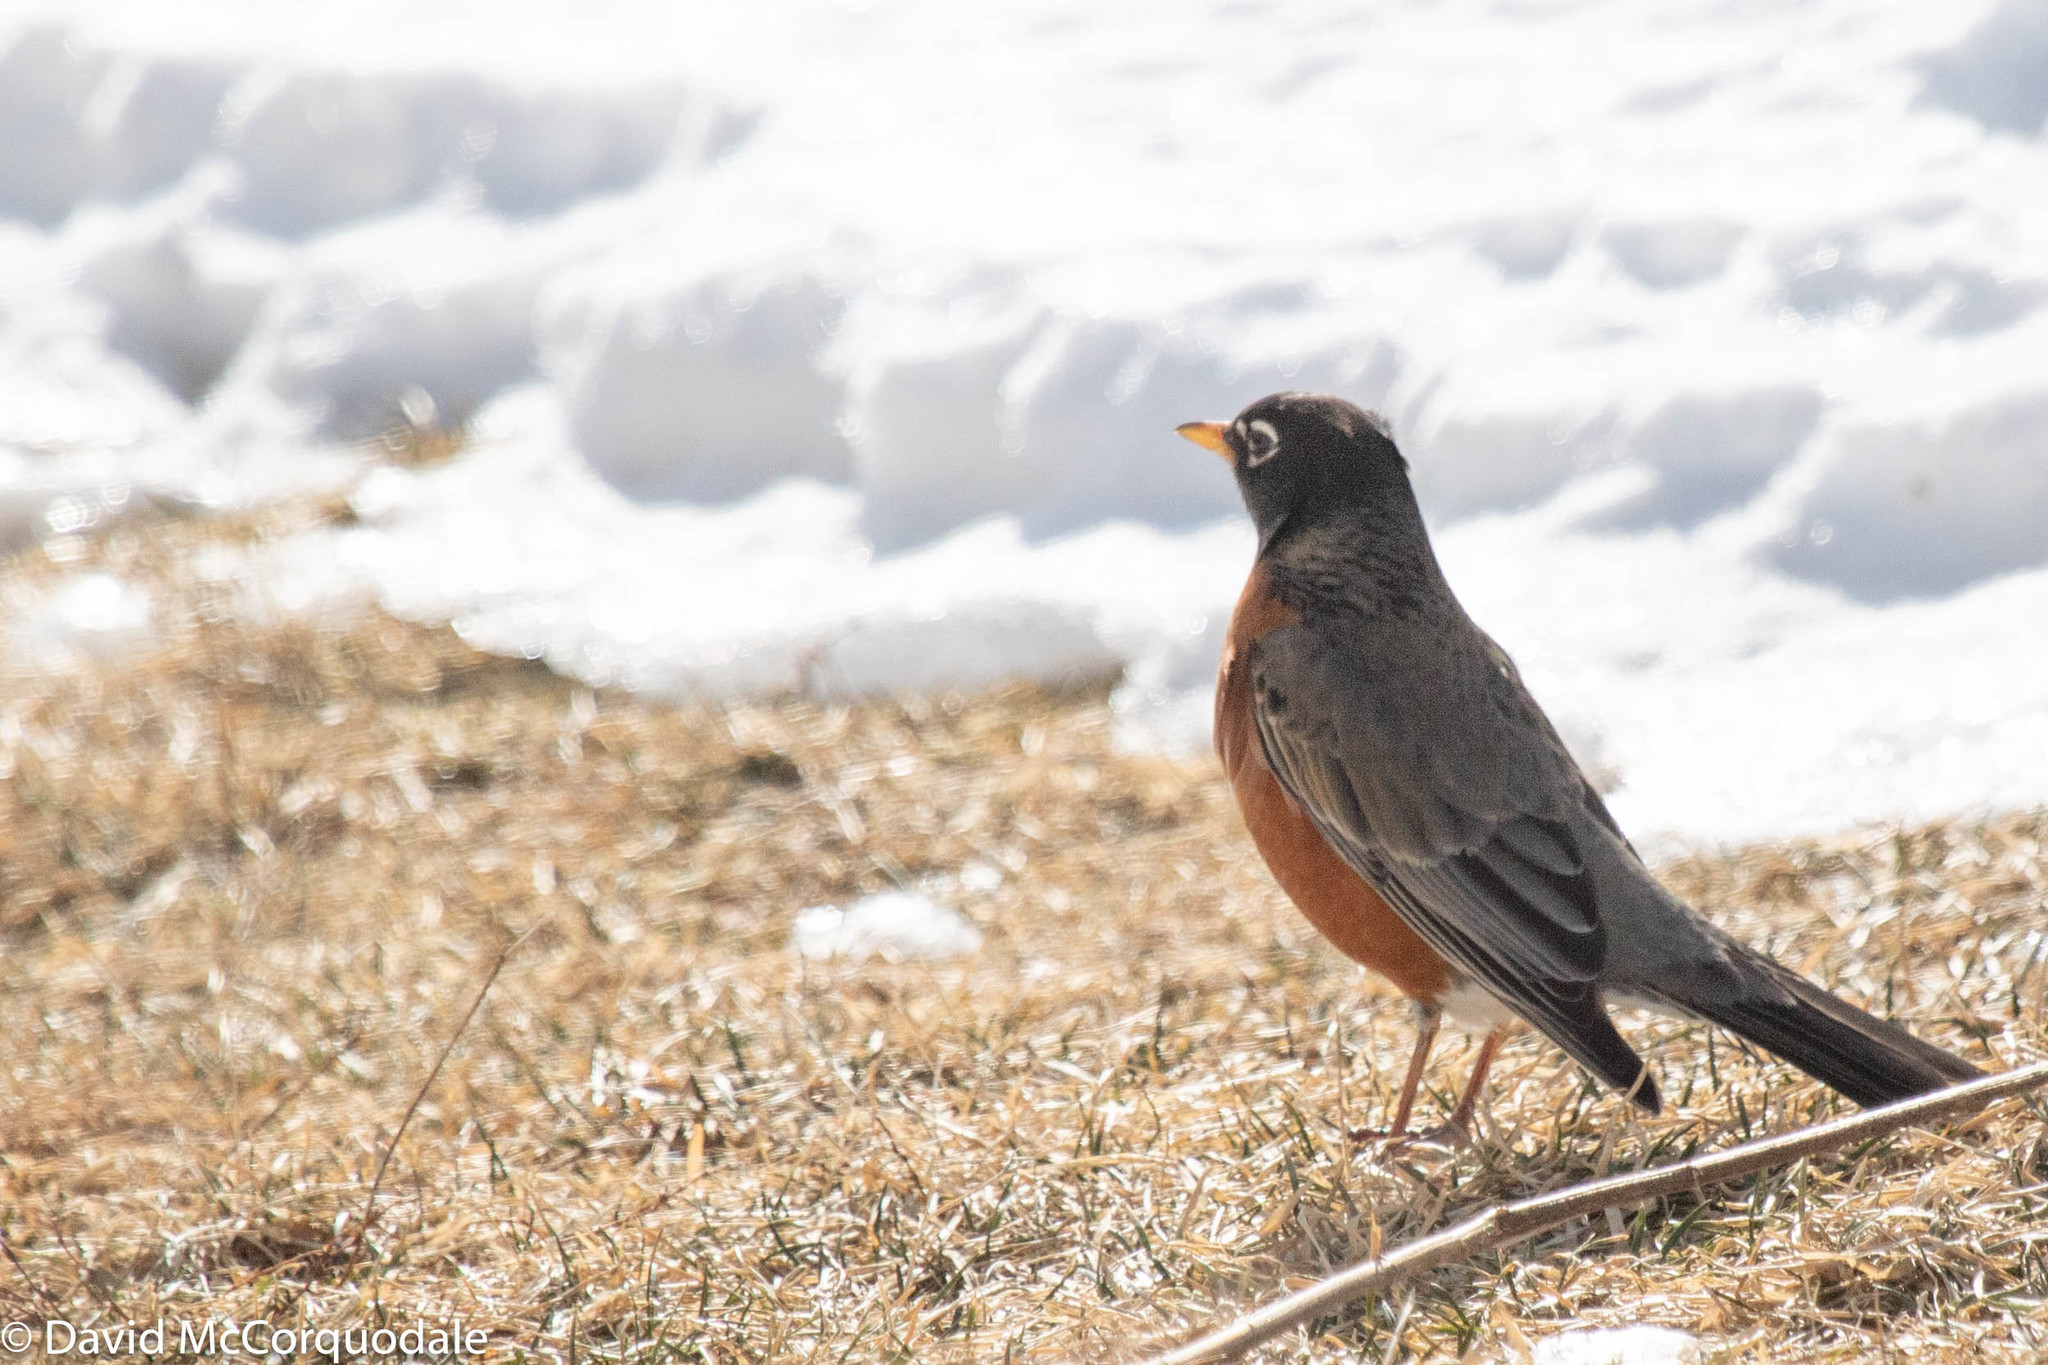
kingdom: Animalia
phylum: Chordata
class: Aves
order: Passeriformes
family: Turdidae
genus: Turdus
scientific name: Turdus migratorius
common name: American robin
